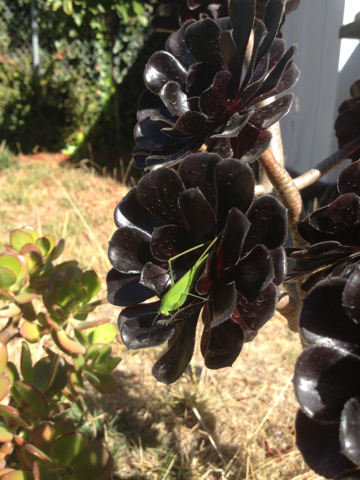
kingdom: Animalia
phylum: Arthropoda
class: Insecta
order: Orthoptera
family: Tettigoniidae
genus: Phaneroptera
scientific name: Phaneroptera nana
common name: Southern sickle bush-cricket
